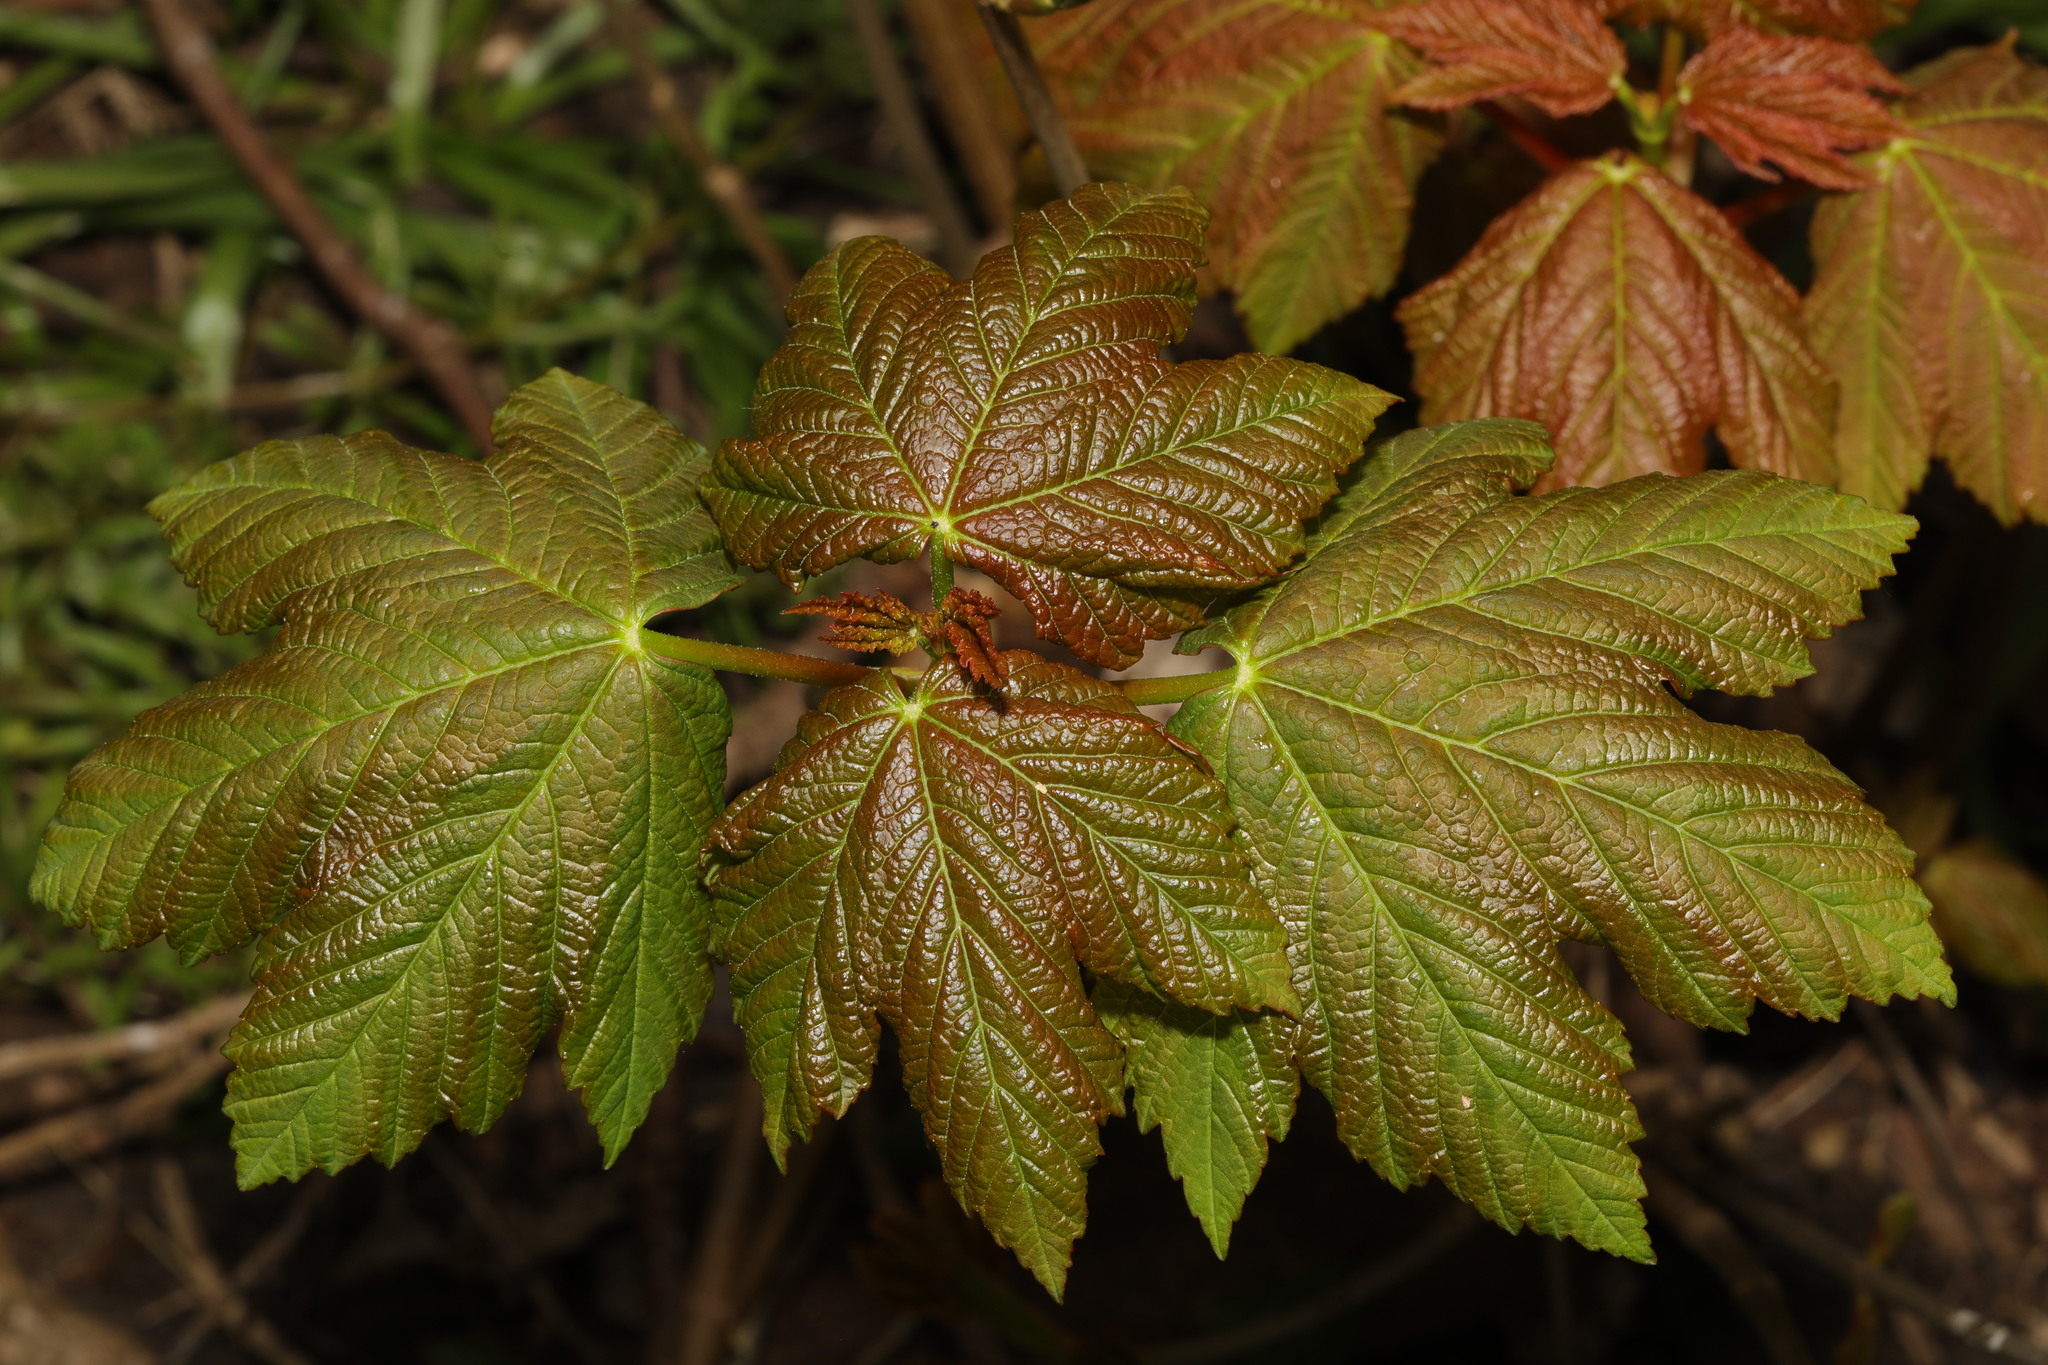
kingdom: Plantae
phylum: Tracheophyta
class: Magnoliopsida
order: Sapindales
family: Sapindaceae
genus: Acer
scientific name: Acer pseudoplatanus
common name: Sycamore
